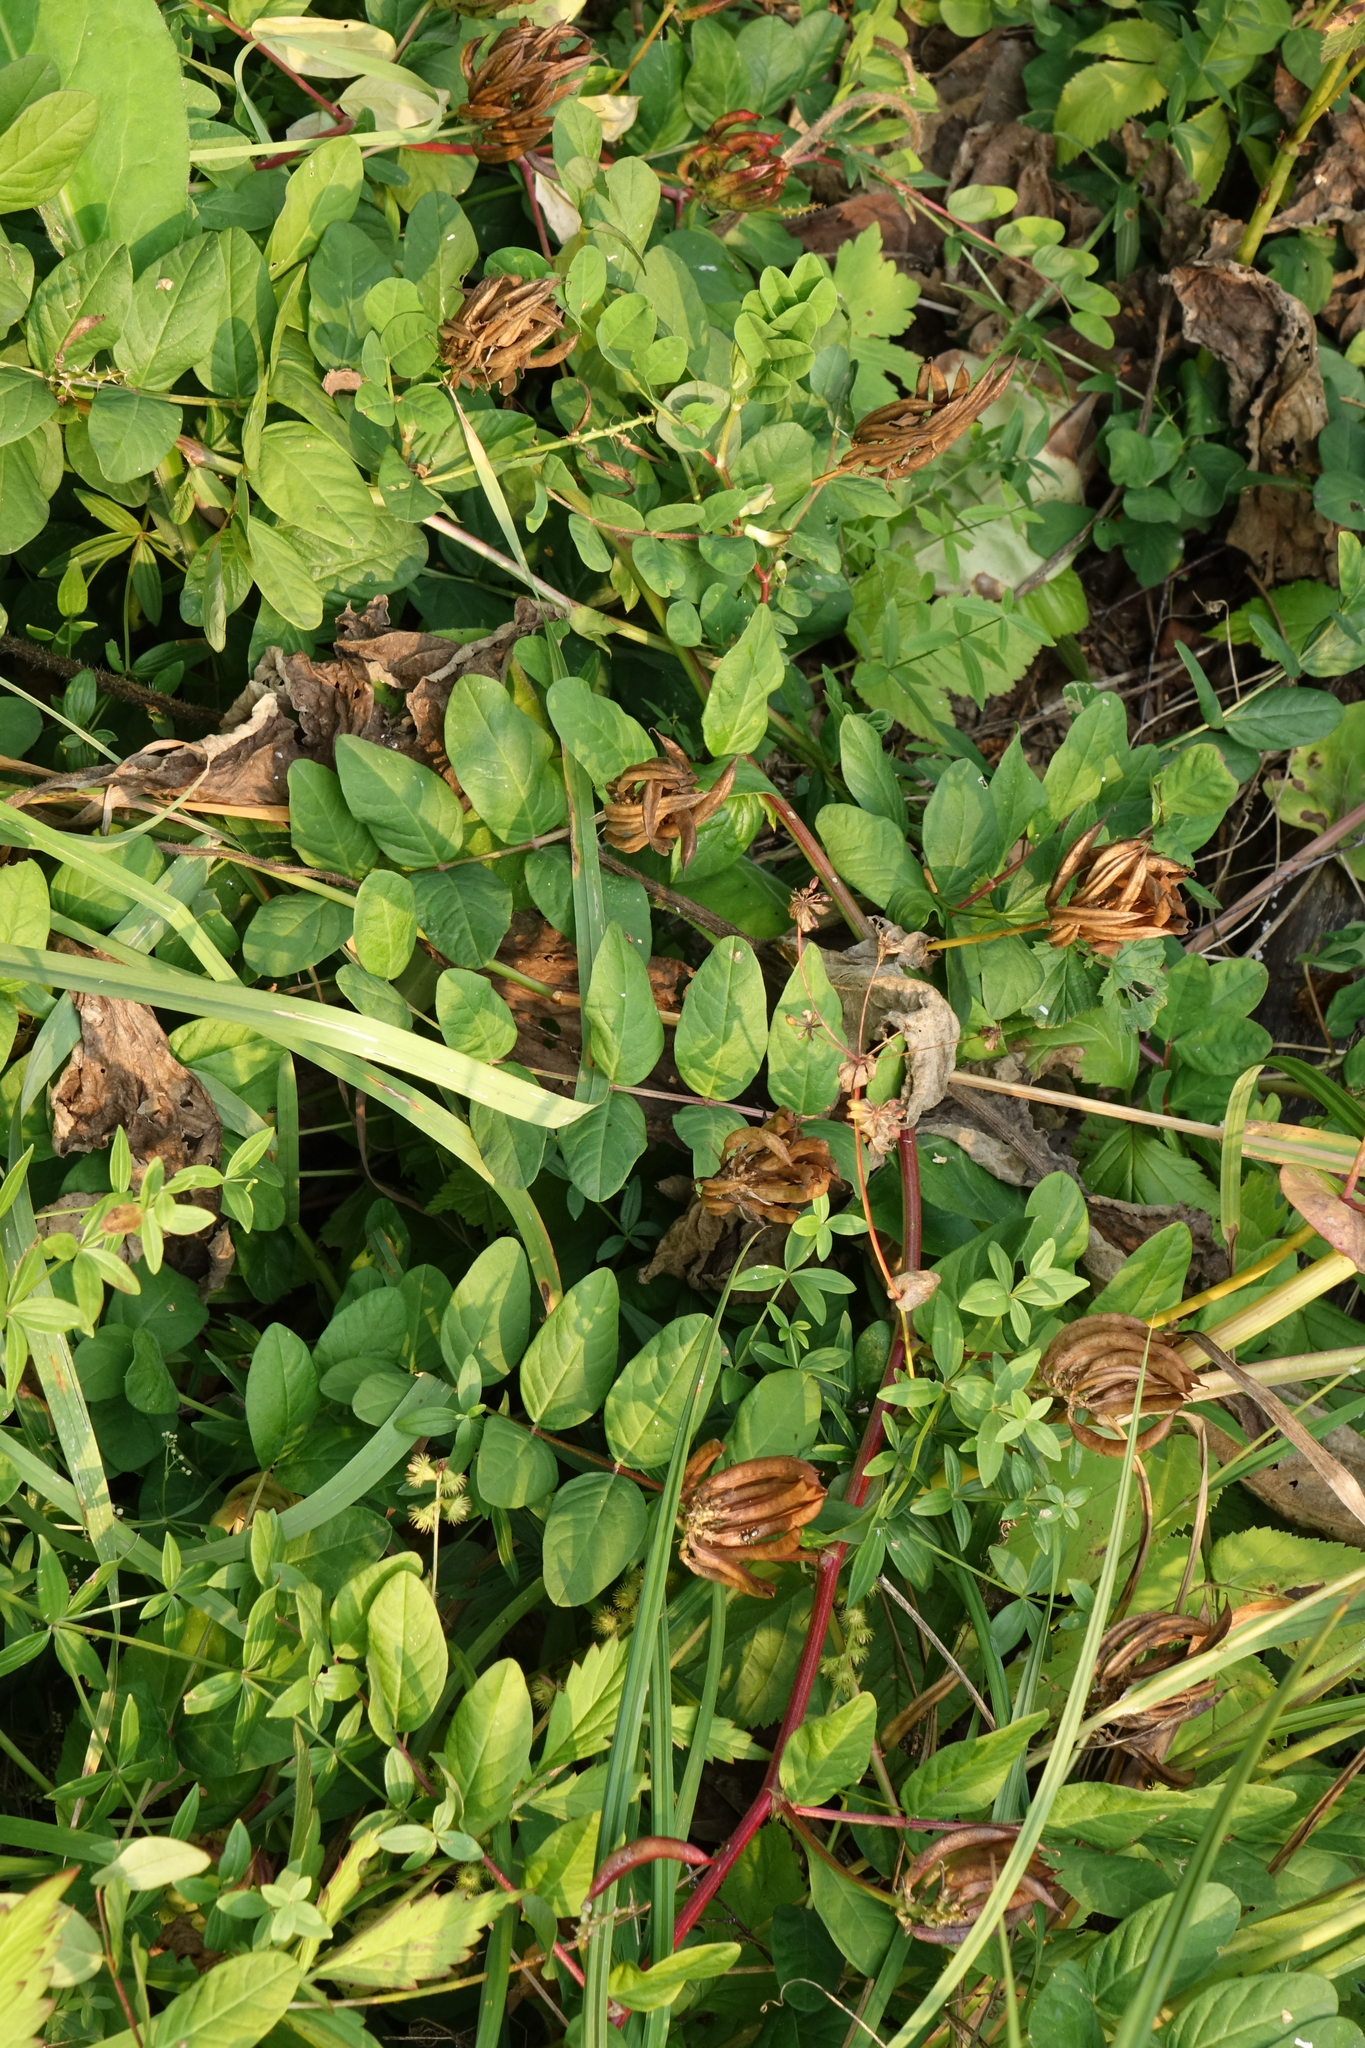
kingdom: Plantae
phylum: Tracheophyta
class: Magnoliopsida
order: Fabales
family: Fabaceae
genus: Astragalus
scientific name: Astragalus glycyphyllos
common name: Wild liquorice
